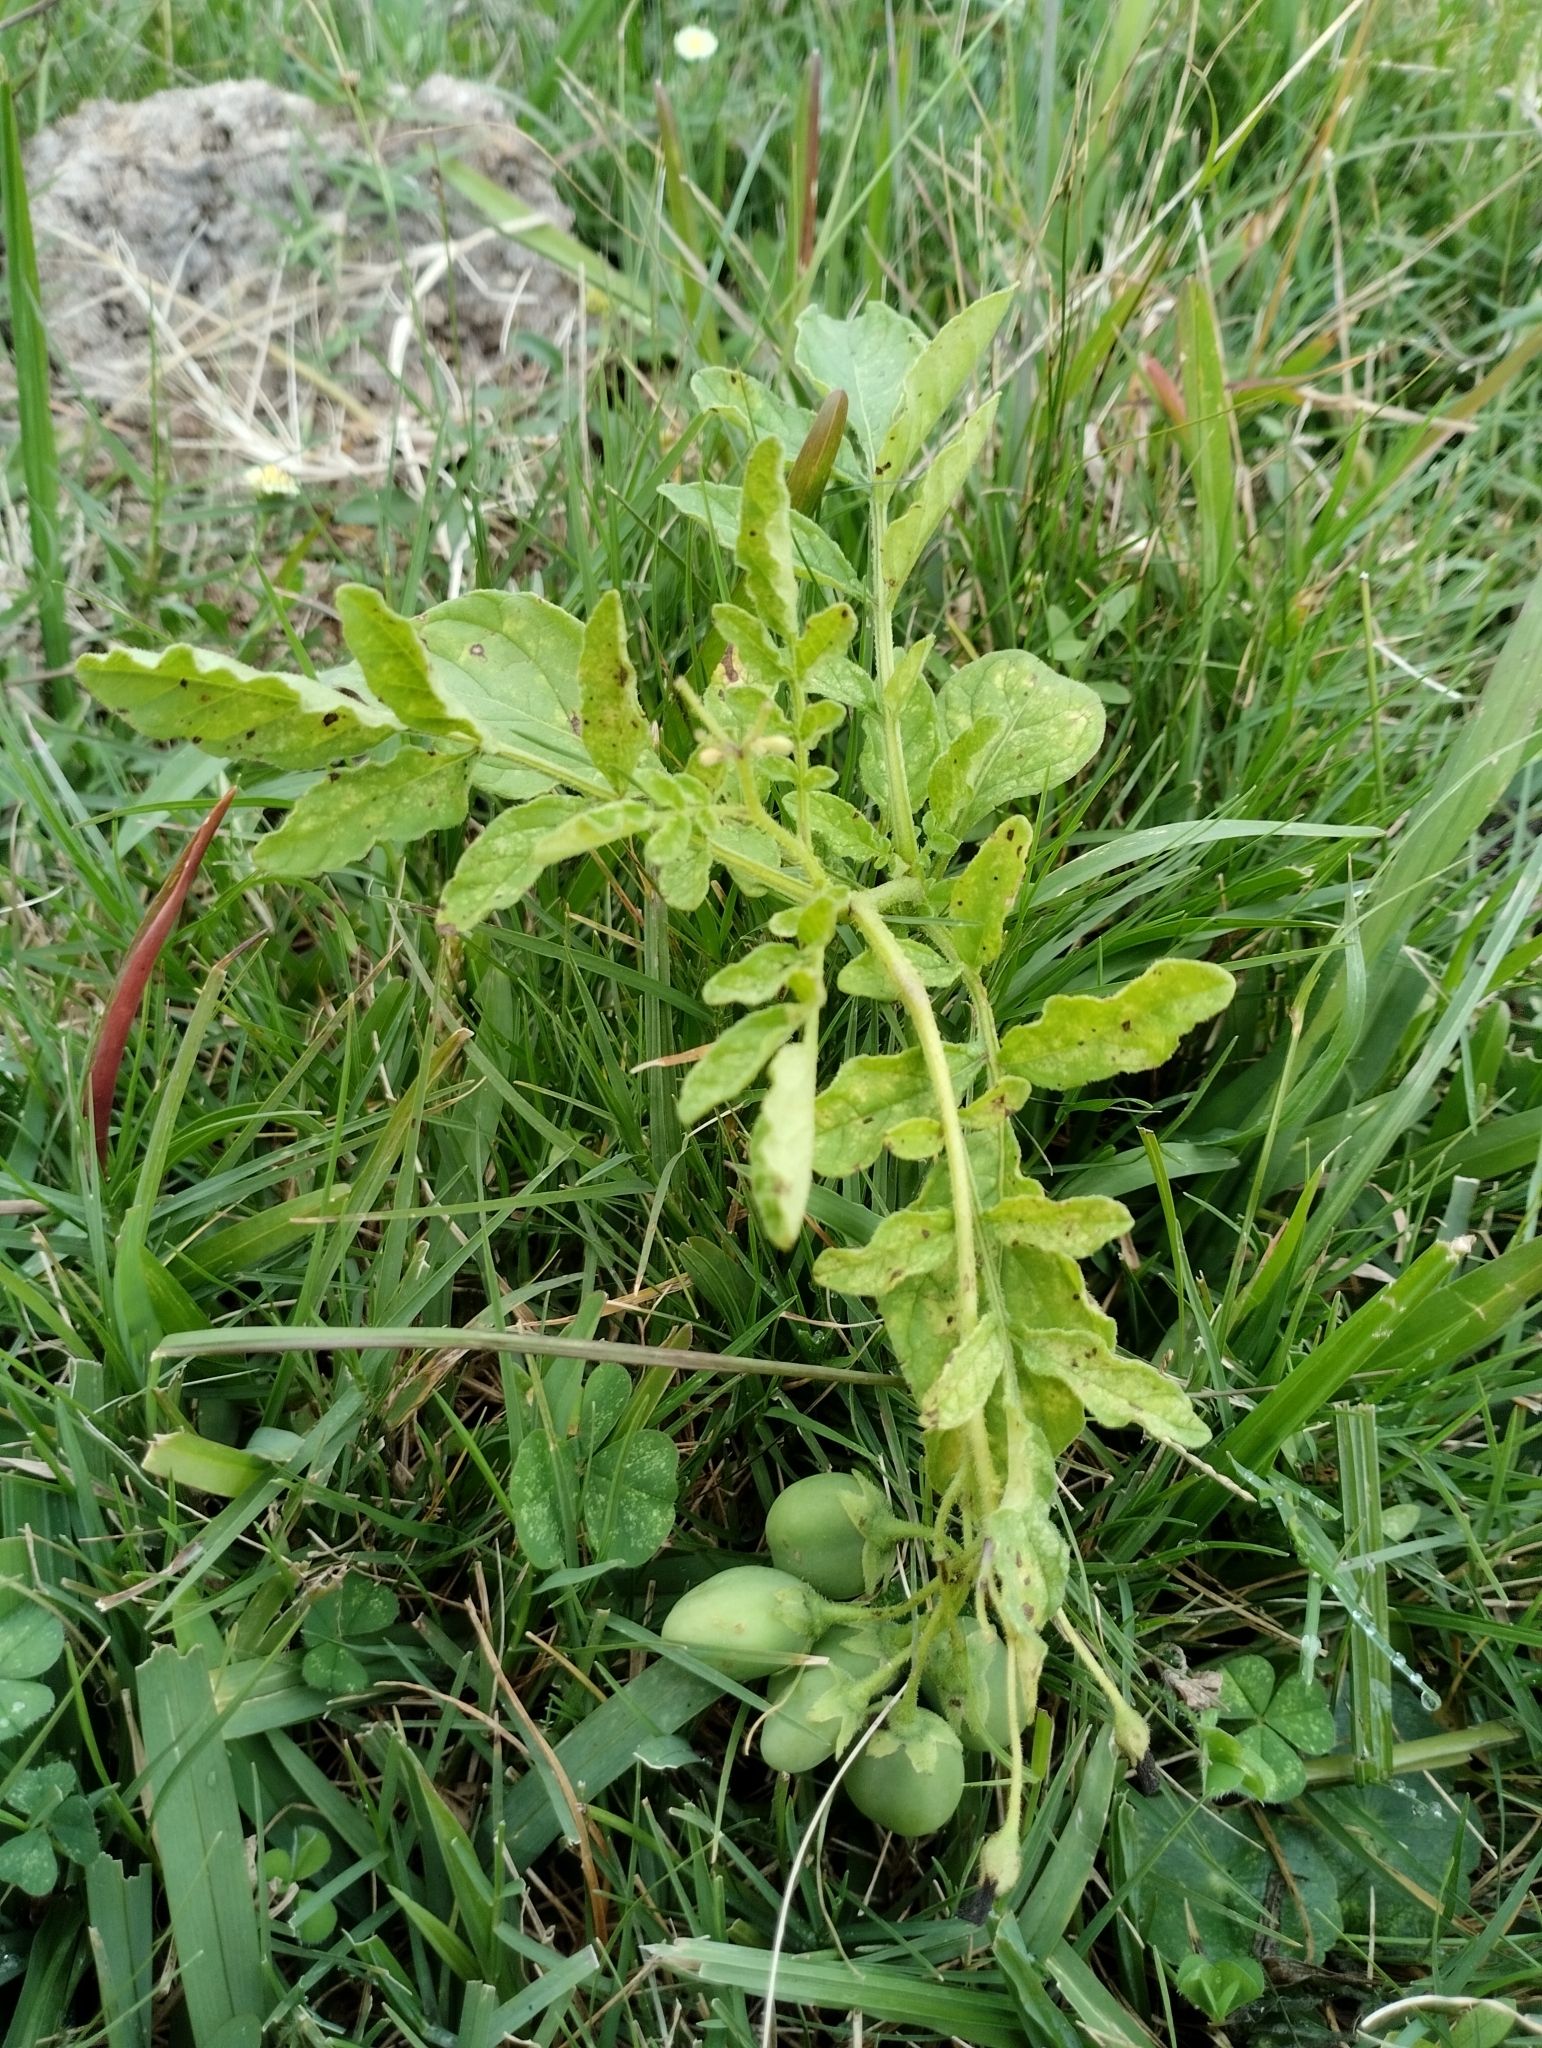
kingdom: Plantae
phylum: Tracheophyta
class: Magnoliopsida
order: Solanales
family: Solanaceae
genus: Solanum
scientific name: Solanum commersonii
